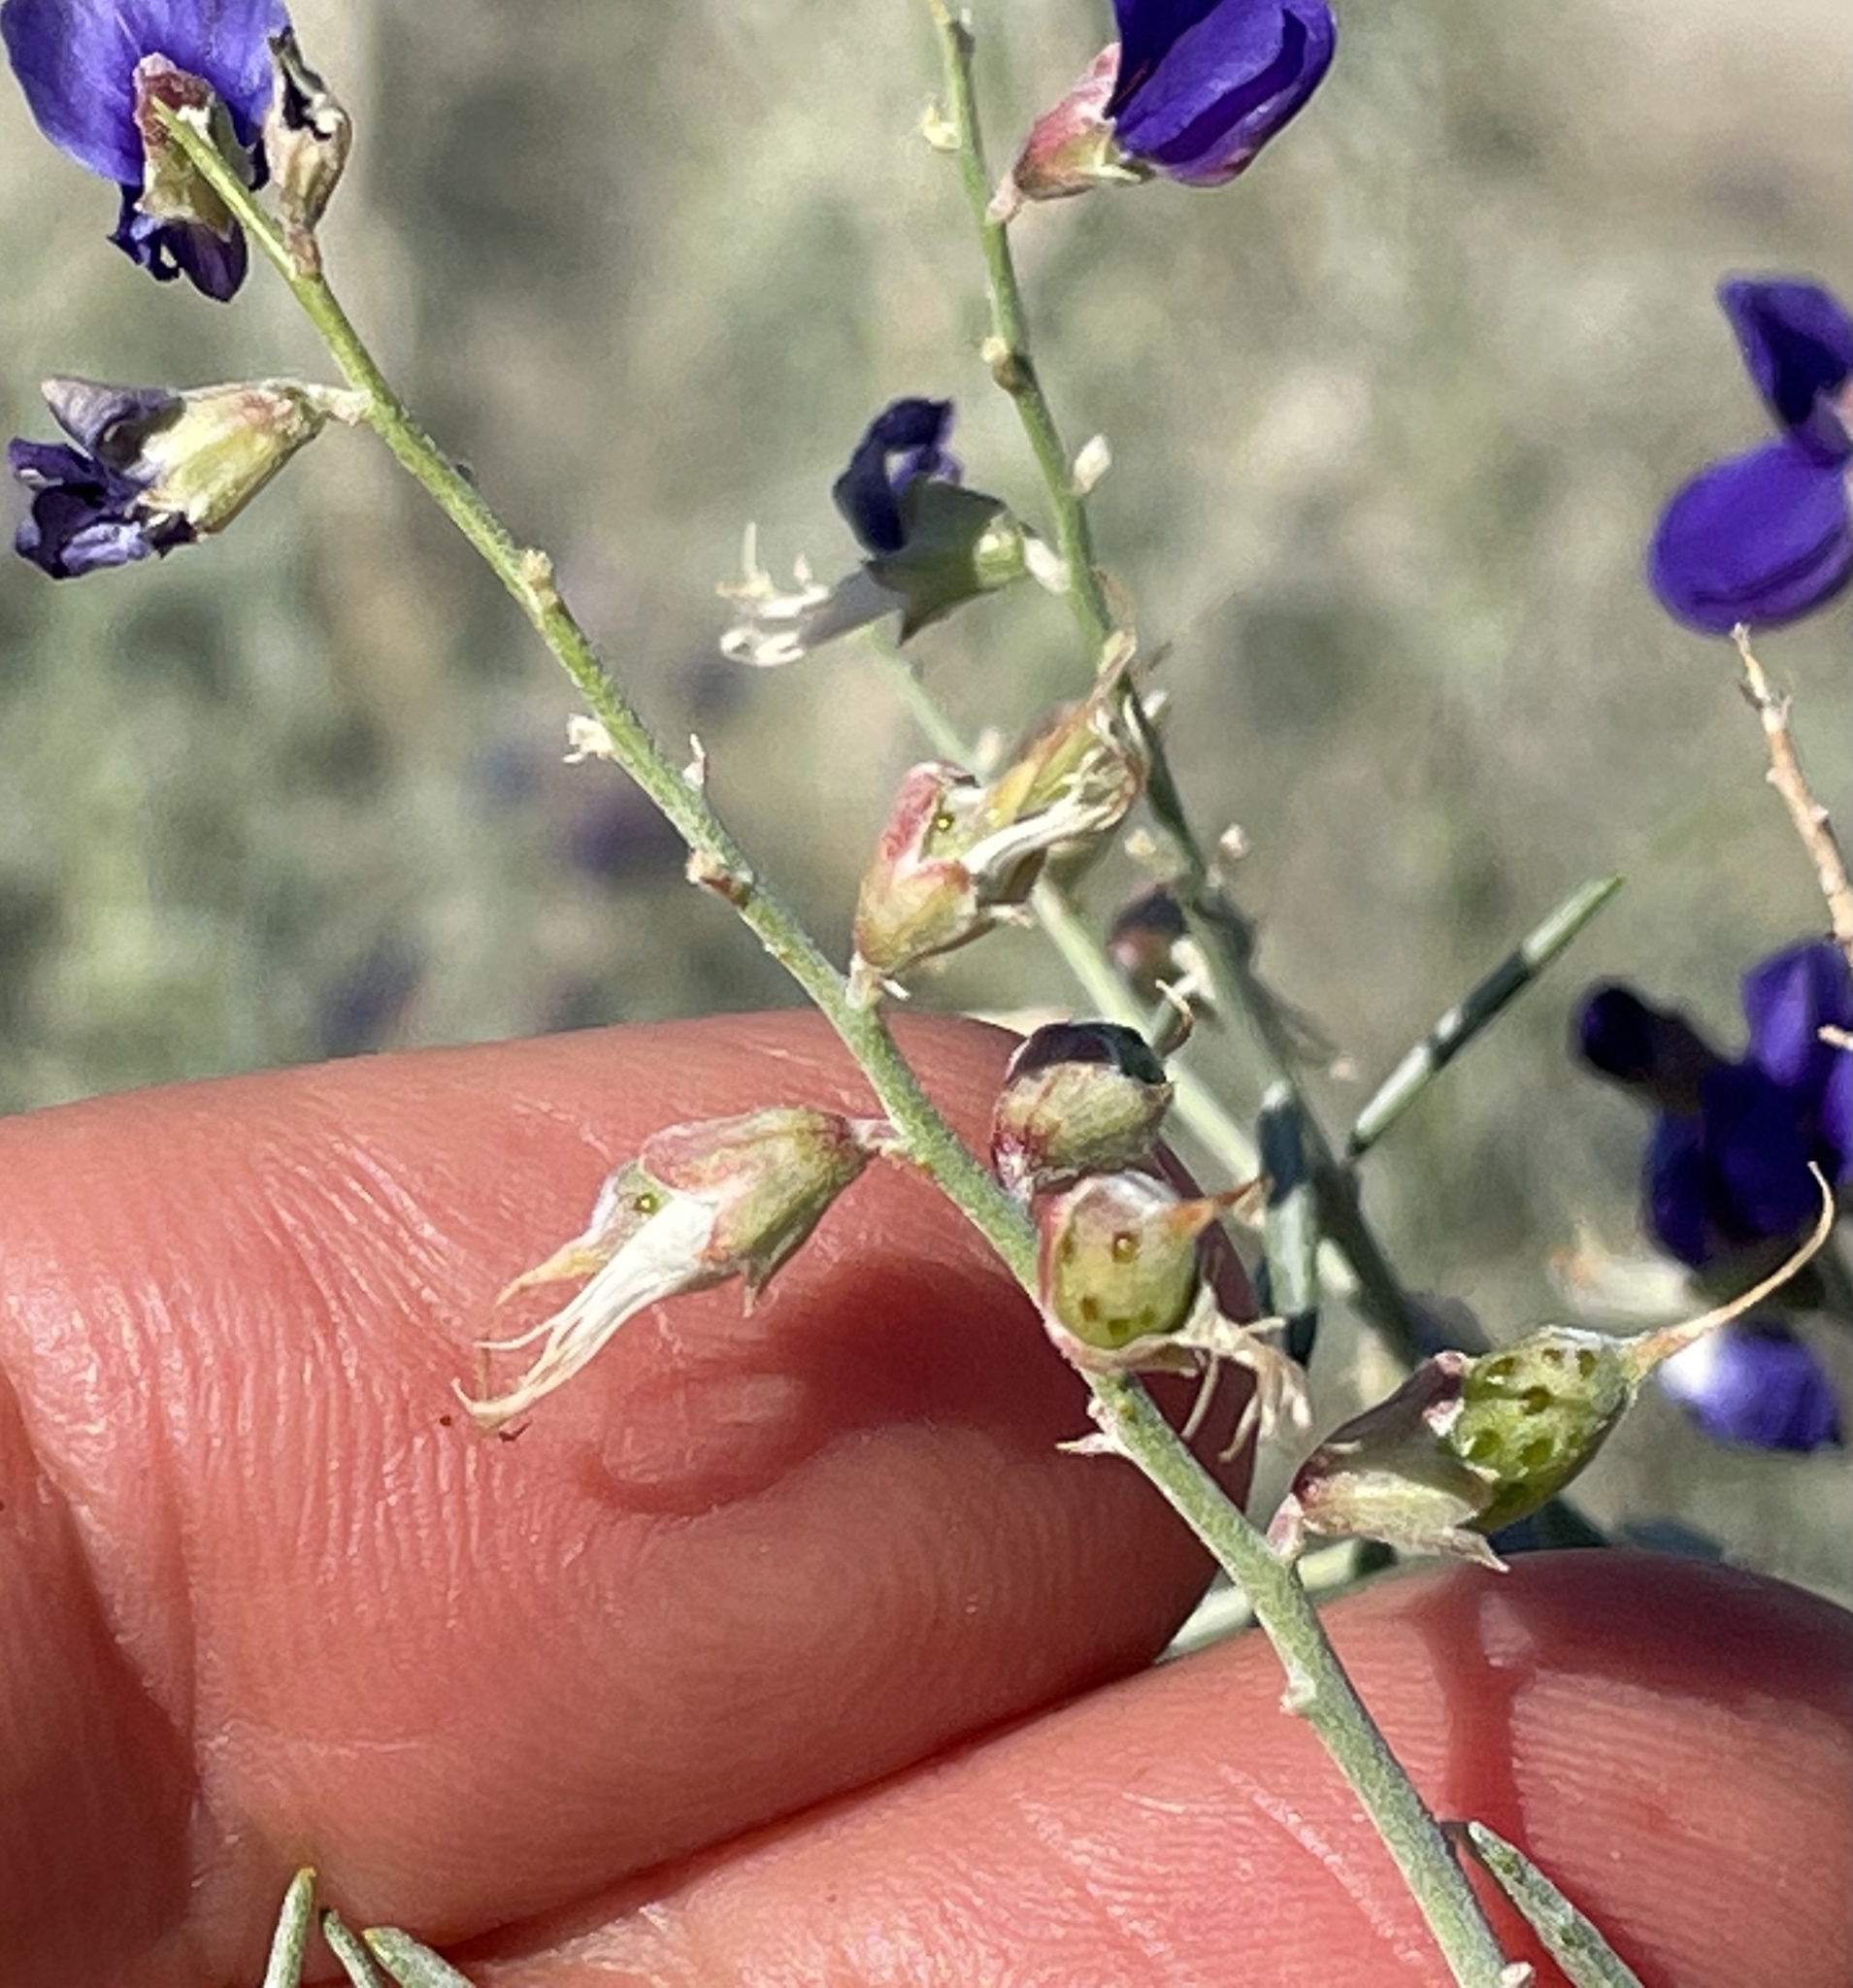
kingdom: Plantae
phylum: Tracheophyta
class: Magnoliopsida
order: Fabales
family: Fabaceae
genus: Psorothamnus
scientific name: Psorothamnus schottii
